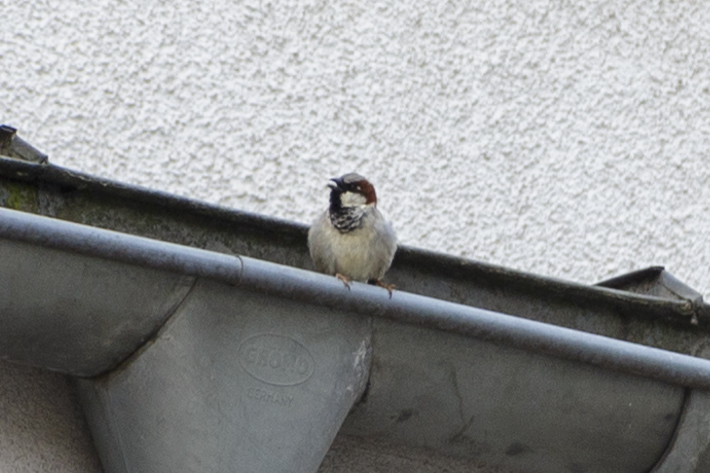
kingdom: Animalia
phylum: Chordata
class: Aves
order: Passeriformes
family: Passeridae
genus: Passer
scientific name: Passer domesticus
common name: House sparrow
